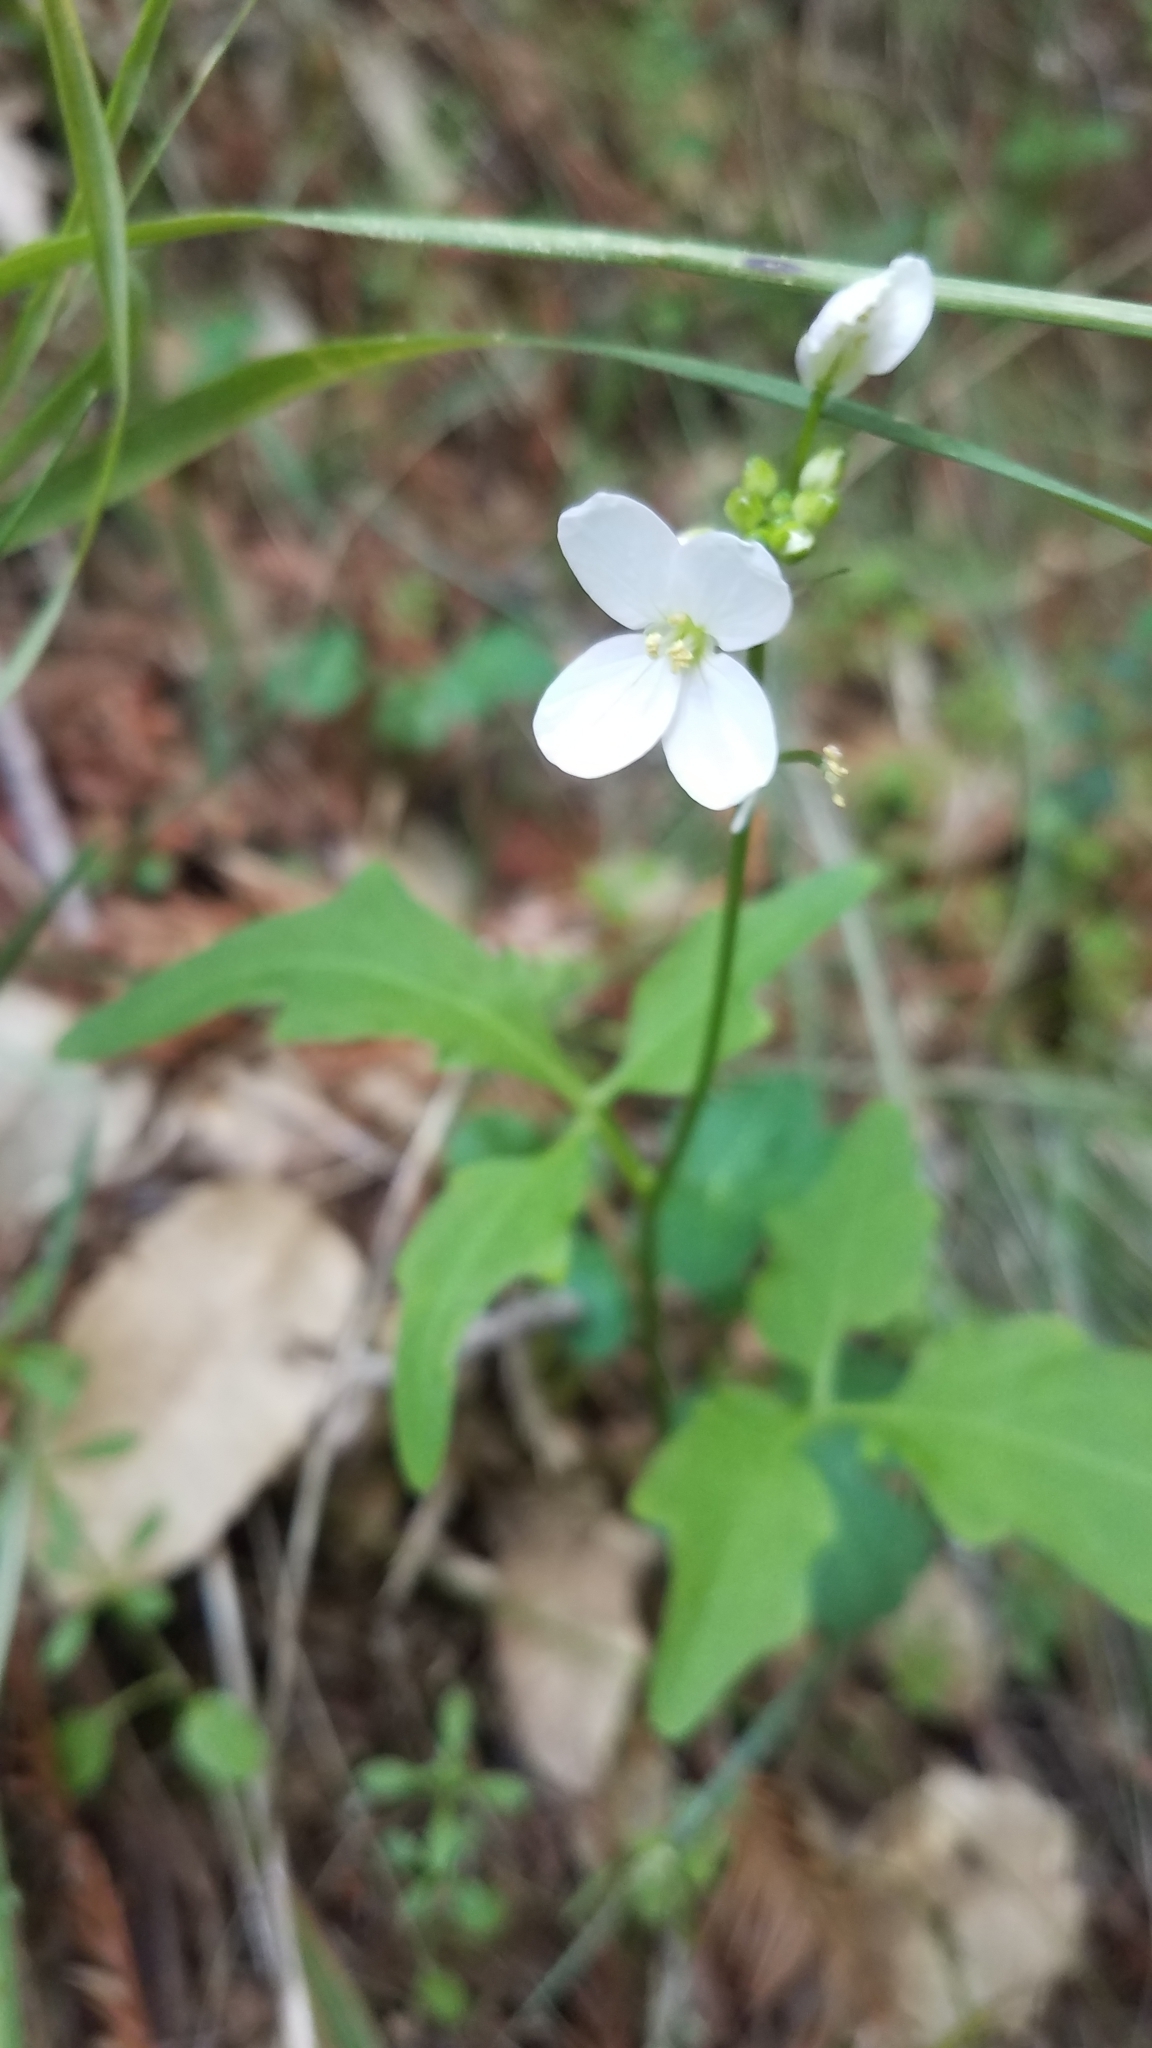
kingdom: Plantae
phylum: Tracheophyta
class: Magnoliopsida
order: Brassicales
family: Brassicaceae
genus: Cardamine
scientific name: Cardamine californica
